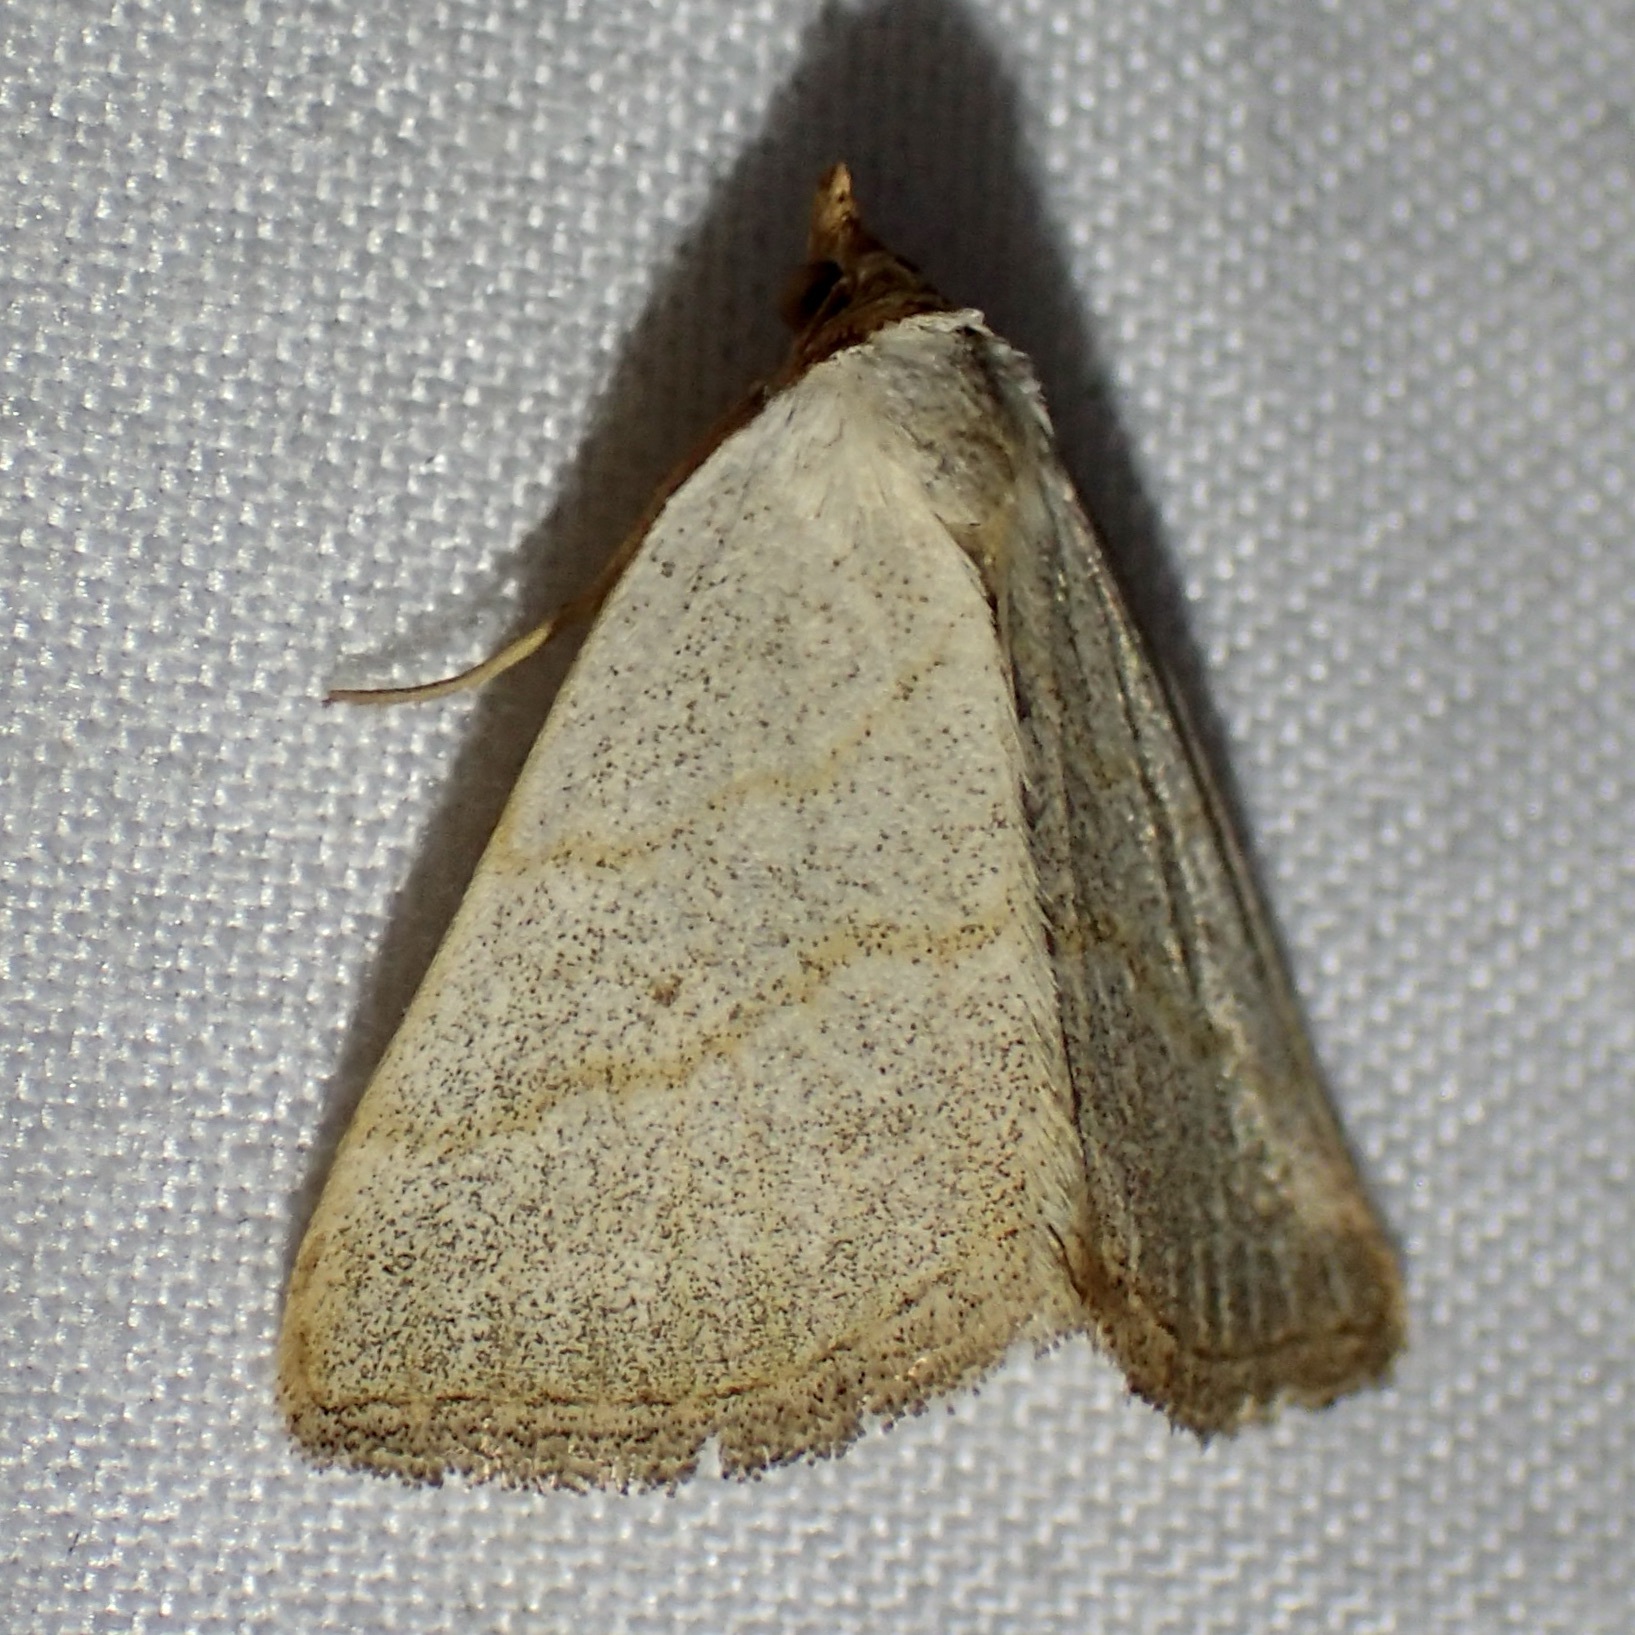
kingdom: Animalia
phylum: Arthropoda
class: Insecta
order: Lepidoptera
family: Erebidae
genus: Oxycilla
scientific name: Oxycilla tripla
